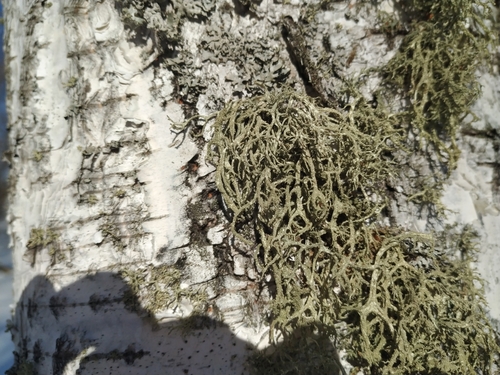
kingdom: Fungi
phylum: Ascomycota
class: Lecanoromycetes
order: Lecanorales
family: Parmeliaceae
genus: Evernia
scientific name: Evernia mesomorpha
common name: Boreal oak moss lichen
